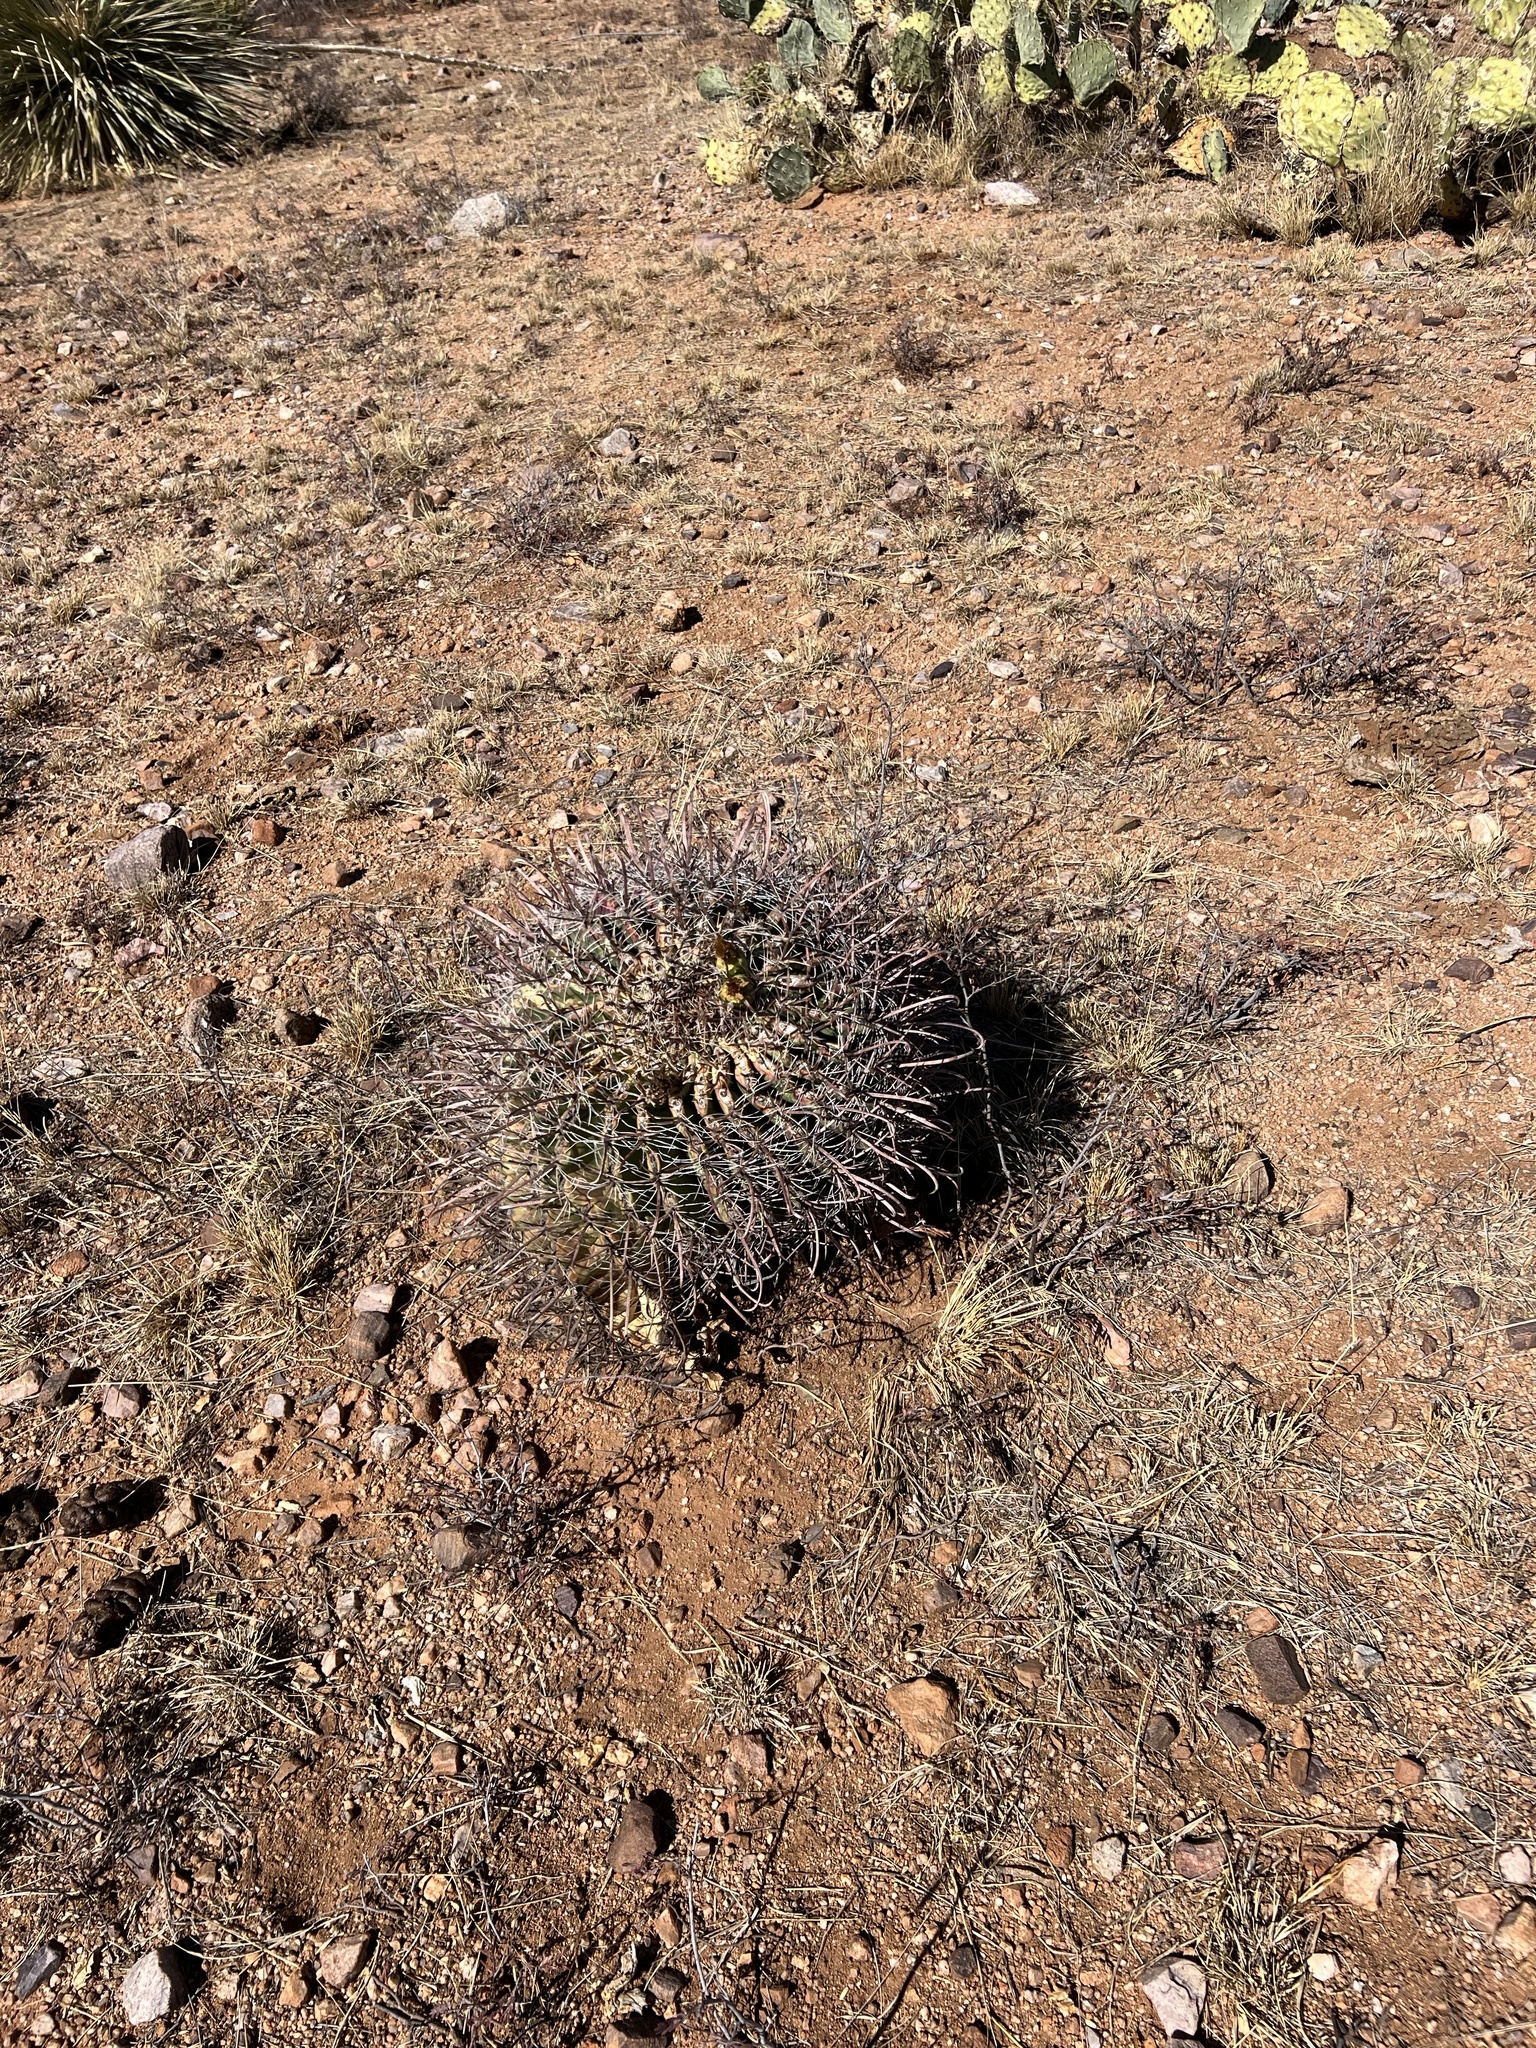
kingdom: Plantae
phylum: Tracheophyta
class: Magnoliopsida
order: Caryophyllales
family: Cactaceae
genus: Ferocactus
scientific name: Ferocactus wislizeni
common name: Candy barrel cactus
